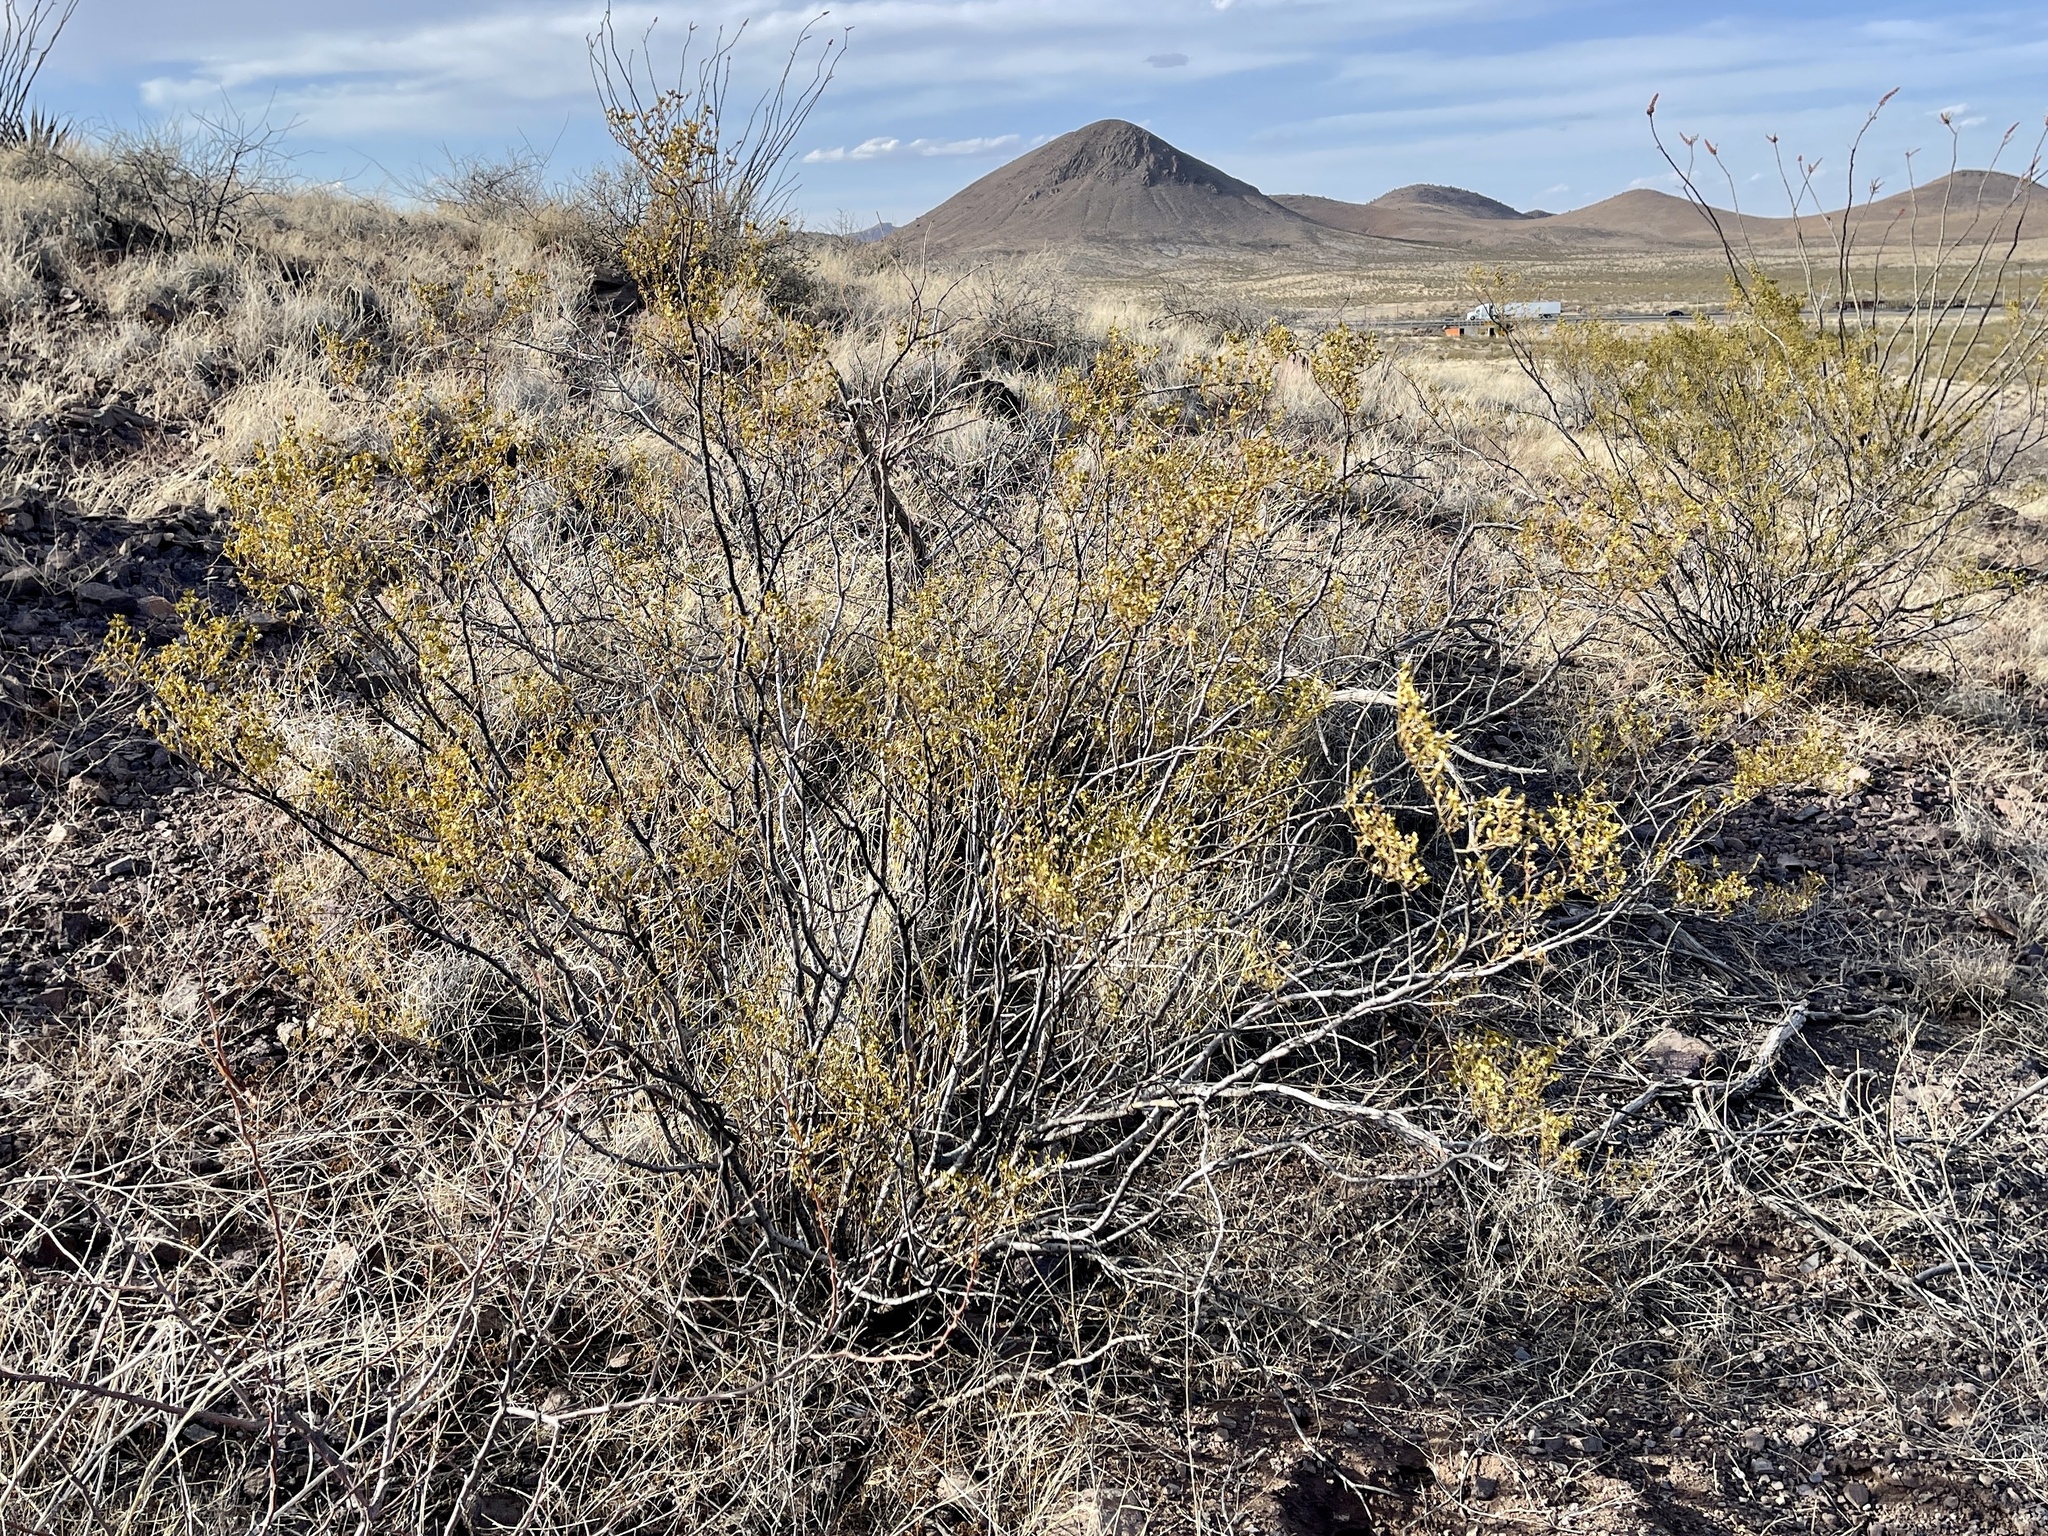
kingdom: Plantae
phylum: Tracheophyta
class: Magnoliopsida
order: Zygophyllales
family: Zygophyllaceae
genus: Larrea
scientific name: Larrea tridentata
